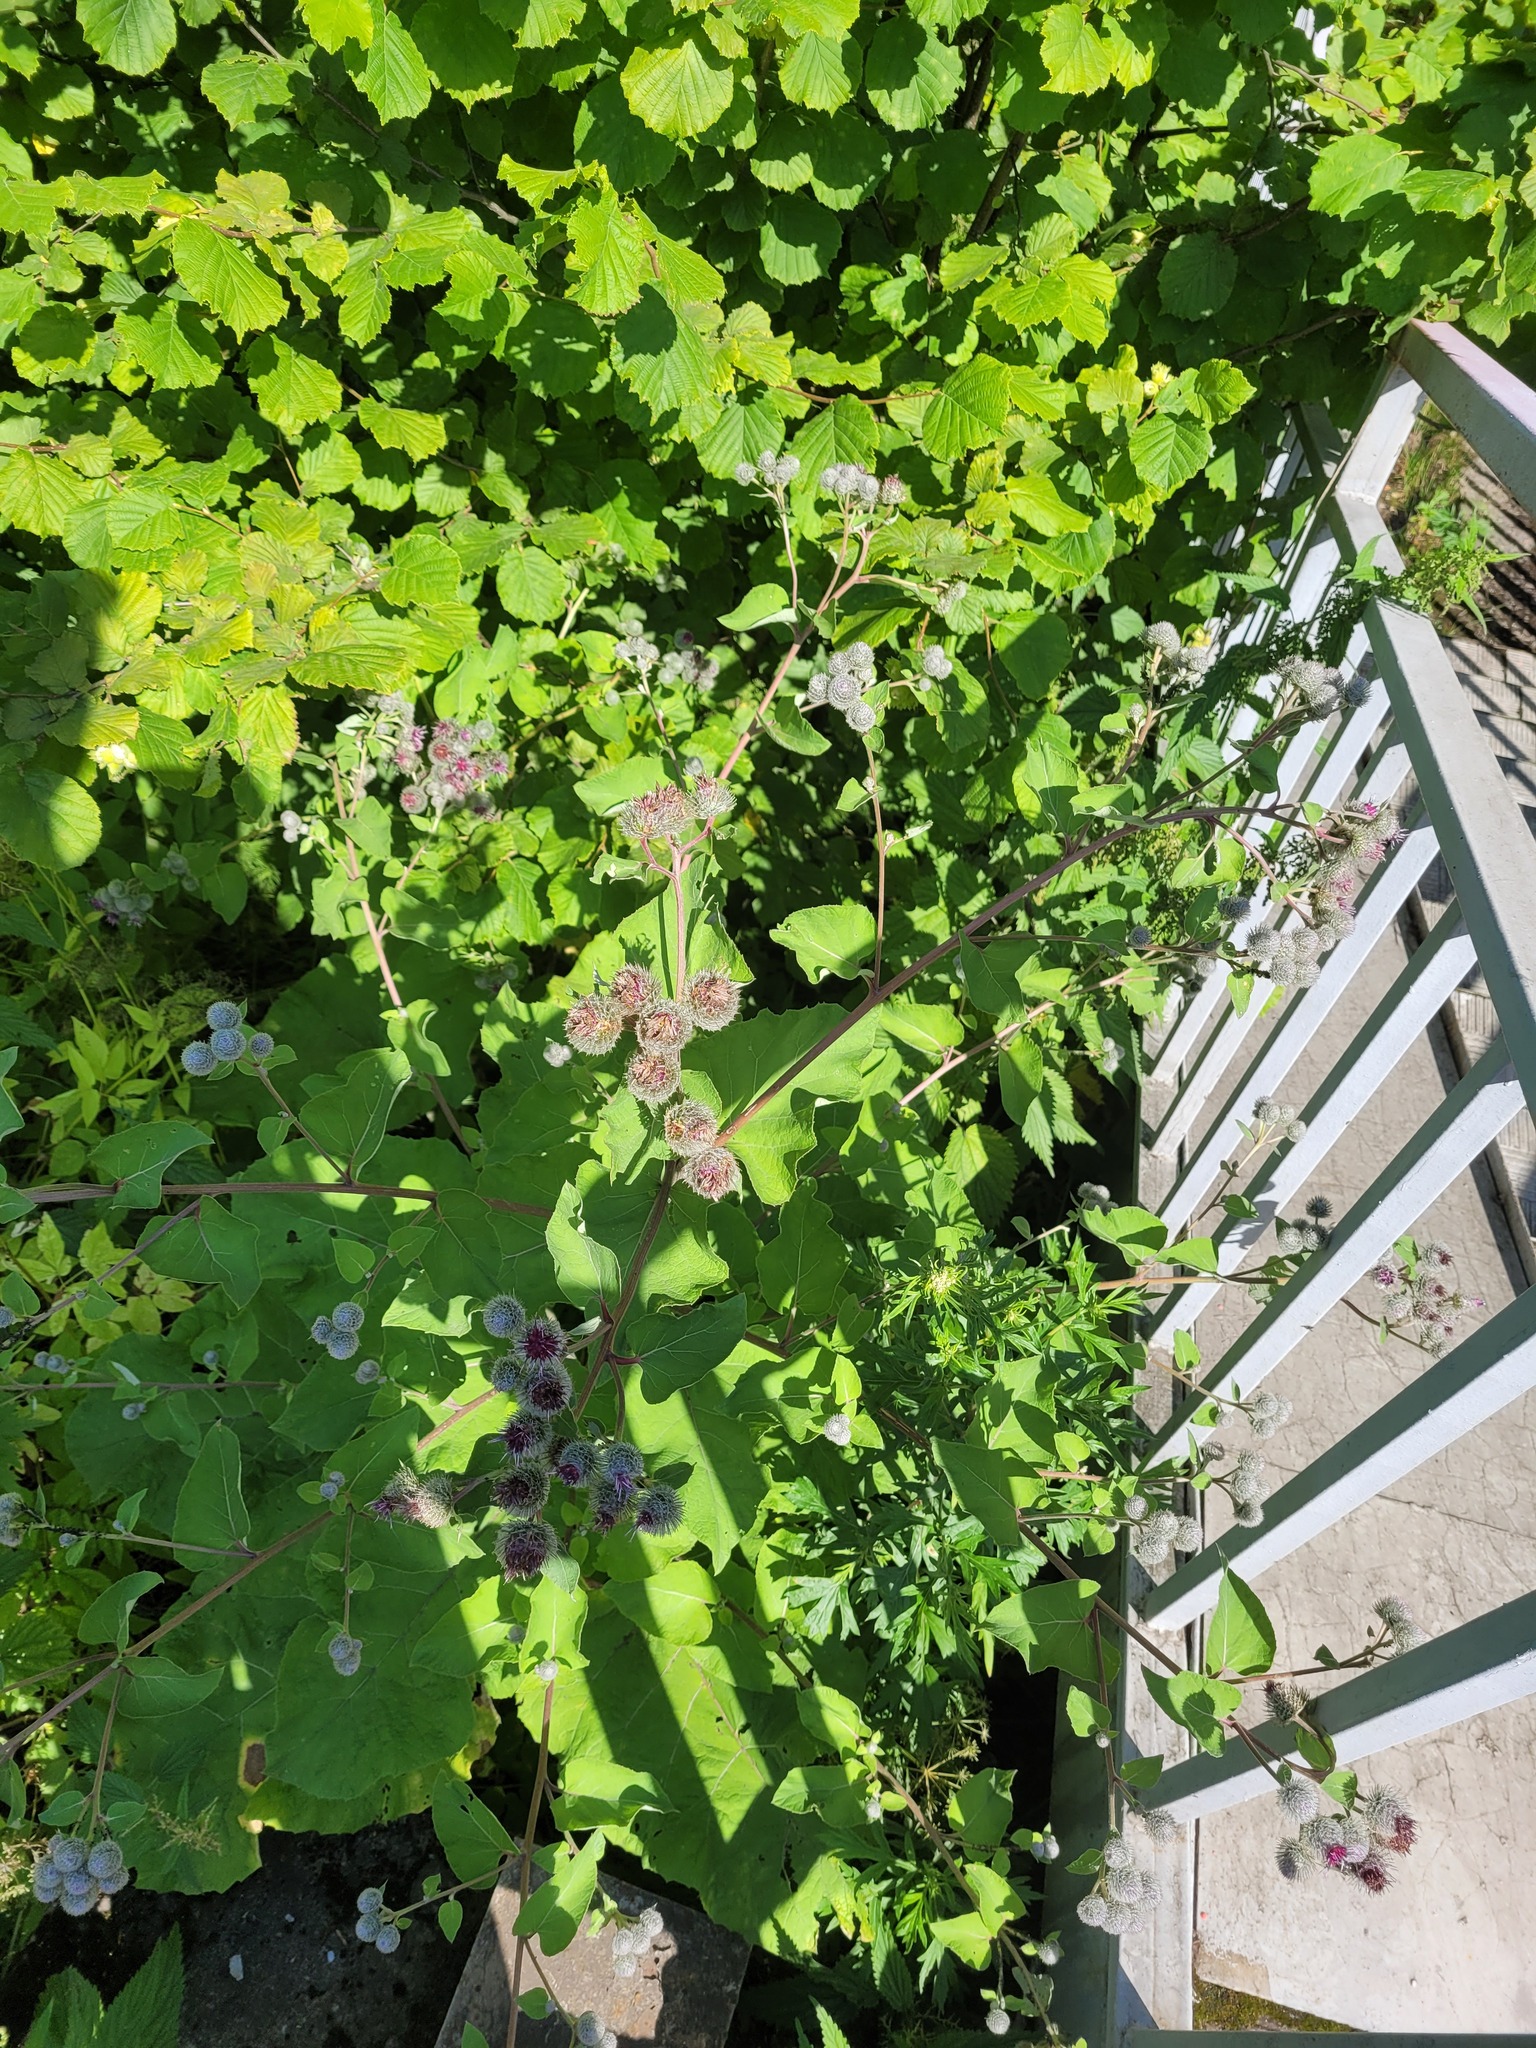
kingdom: Plantae
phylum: Tracheophyta
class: Magnoliopsida
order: Asterales
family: Asteraceae
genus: Arctium
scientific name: Arctium tomentosum
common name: Woolly burdock
